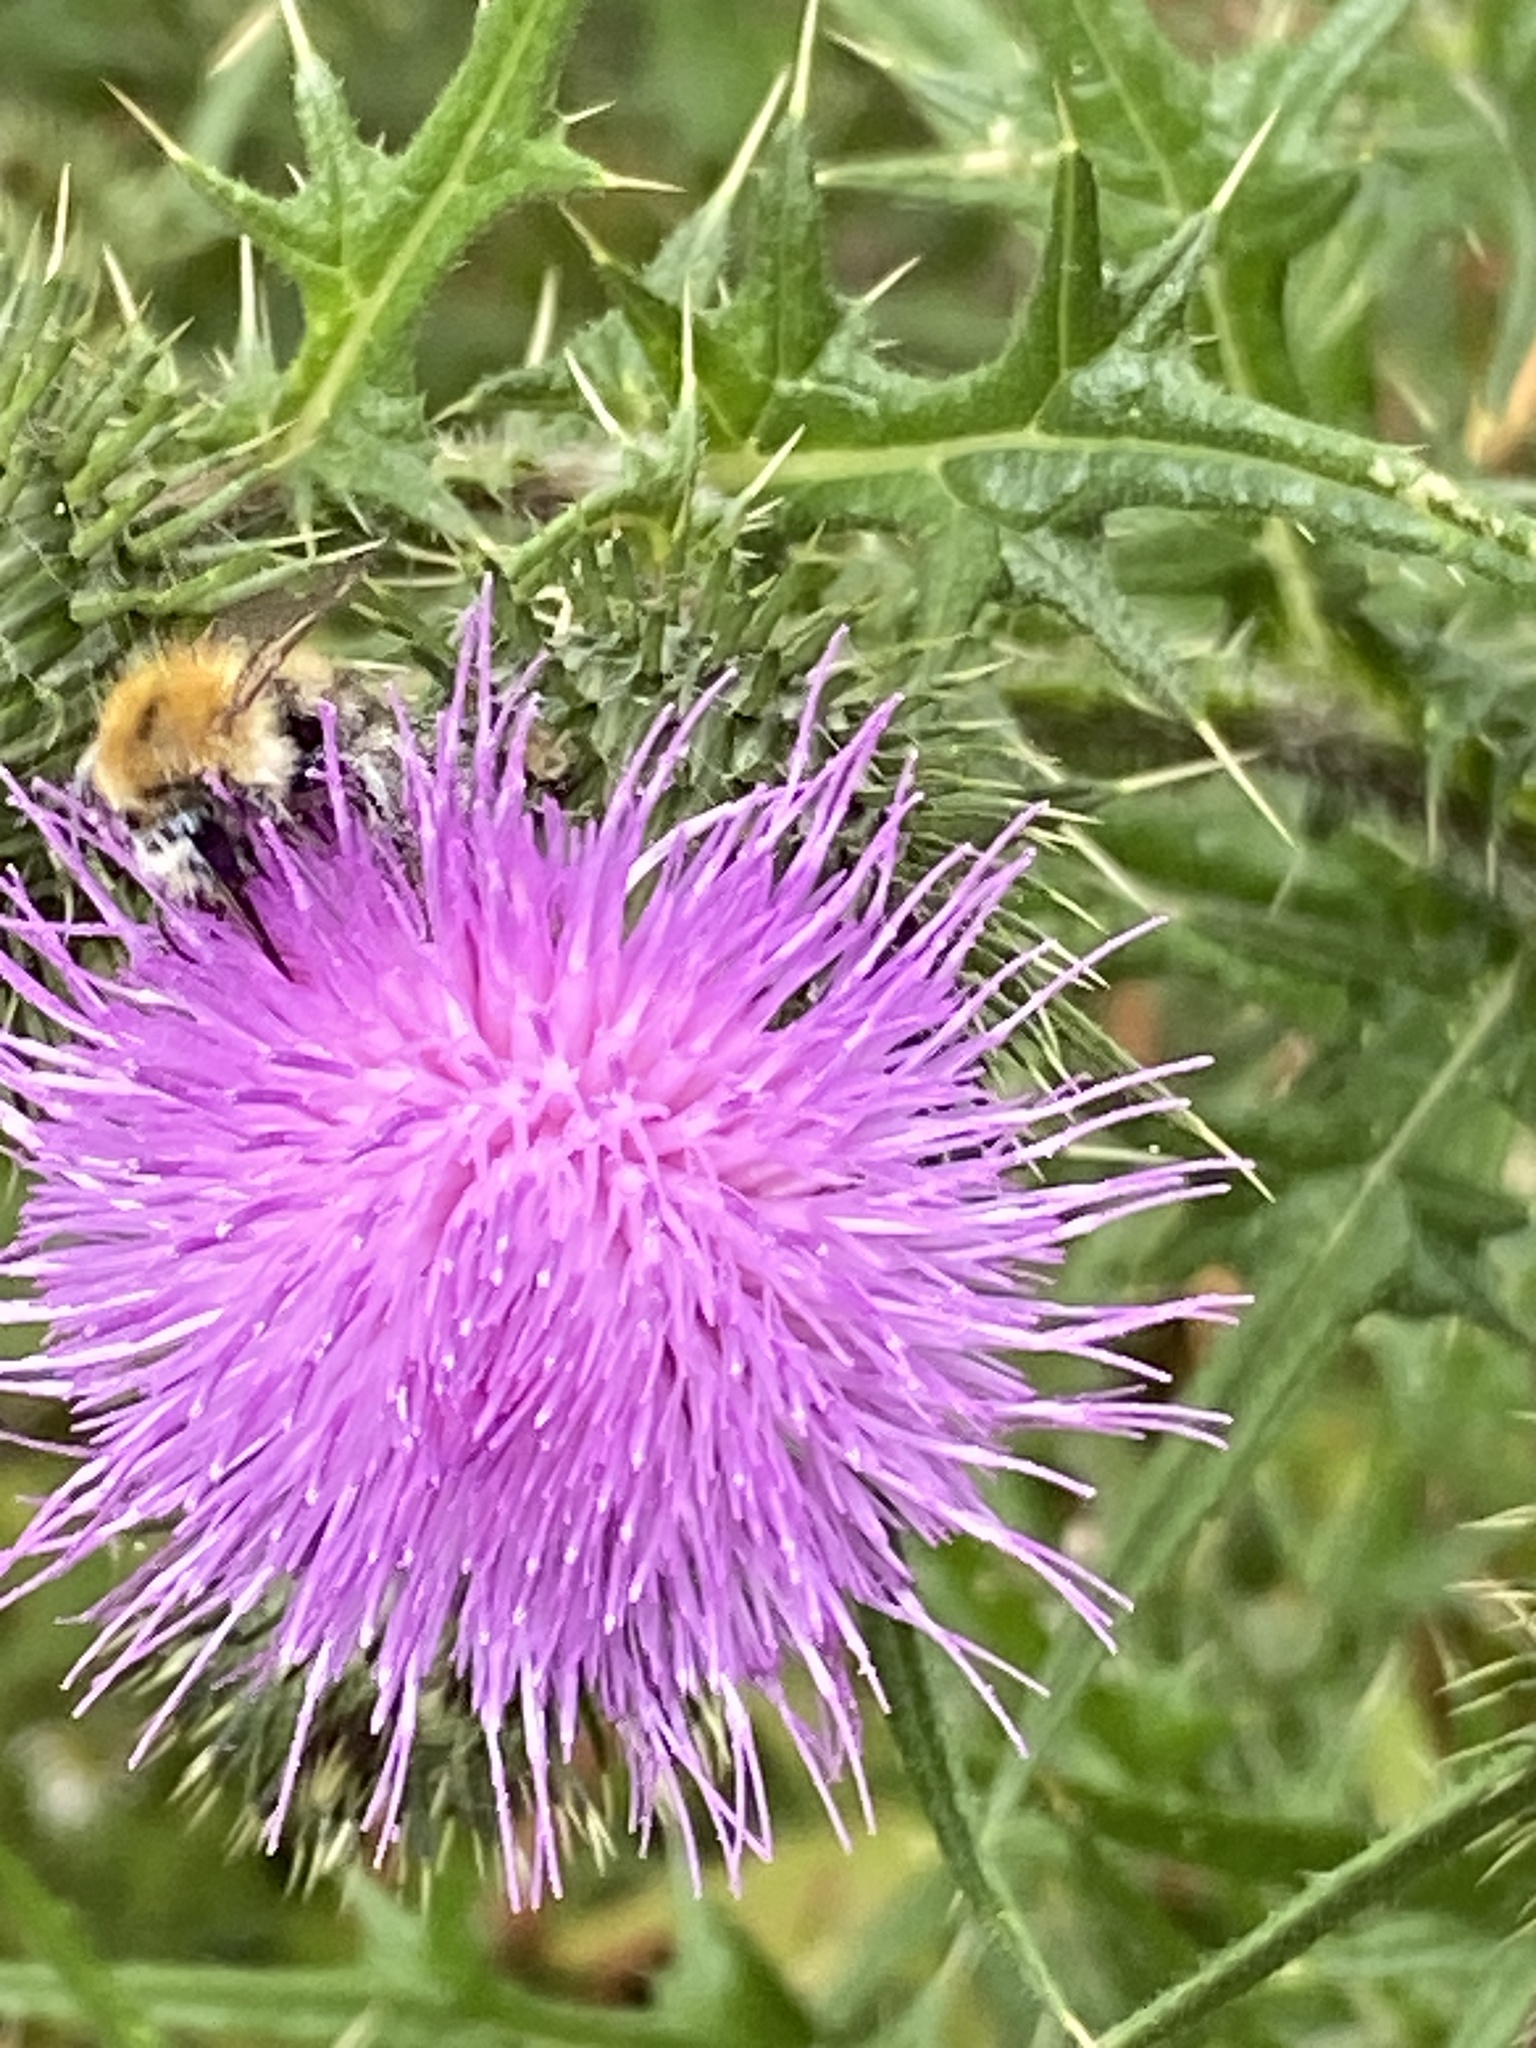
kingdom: Animalia
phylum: Arthropoda
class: Insecta
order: Hymenoptera
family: Apidae
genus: Bombus
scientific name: Bombus pascuorum
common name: Common carder bee
